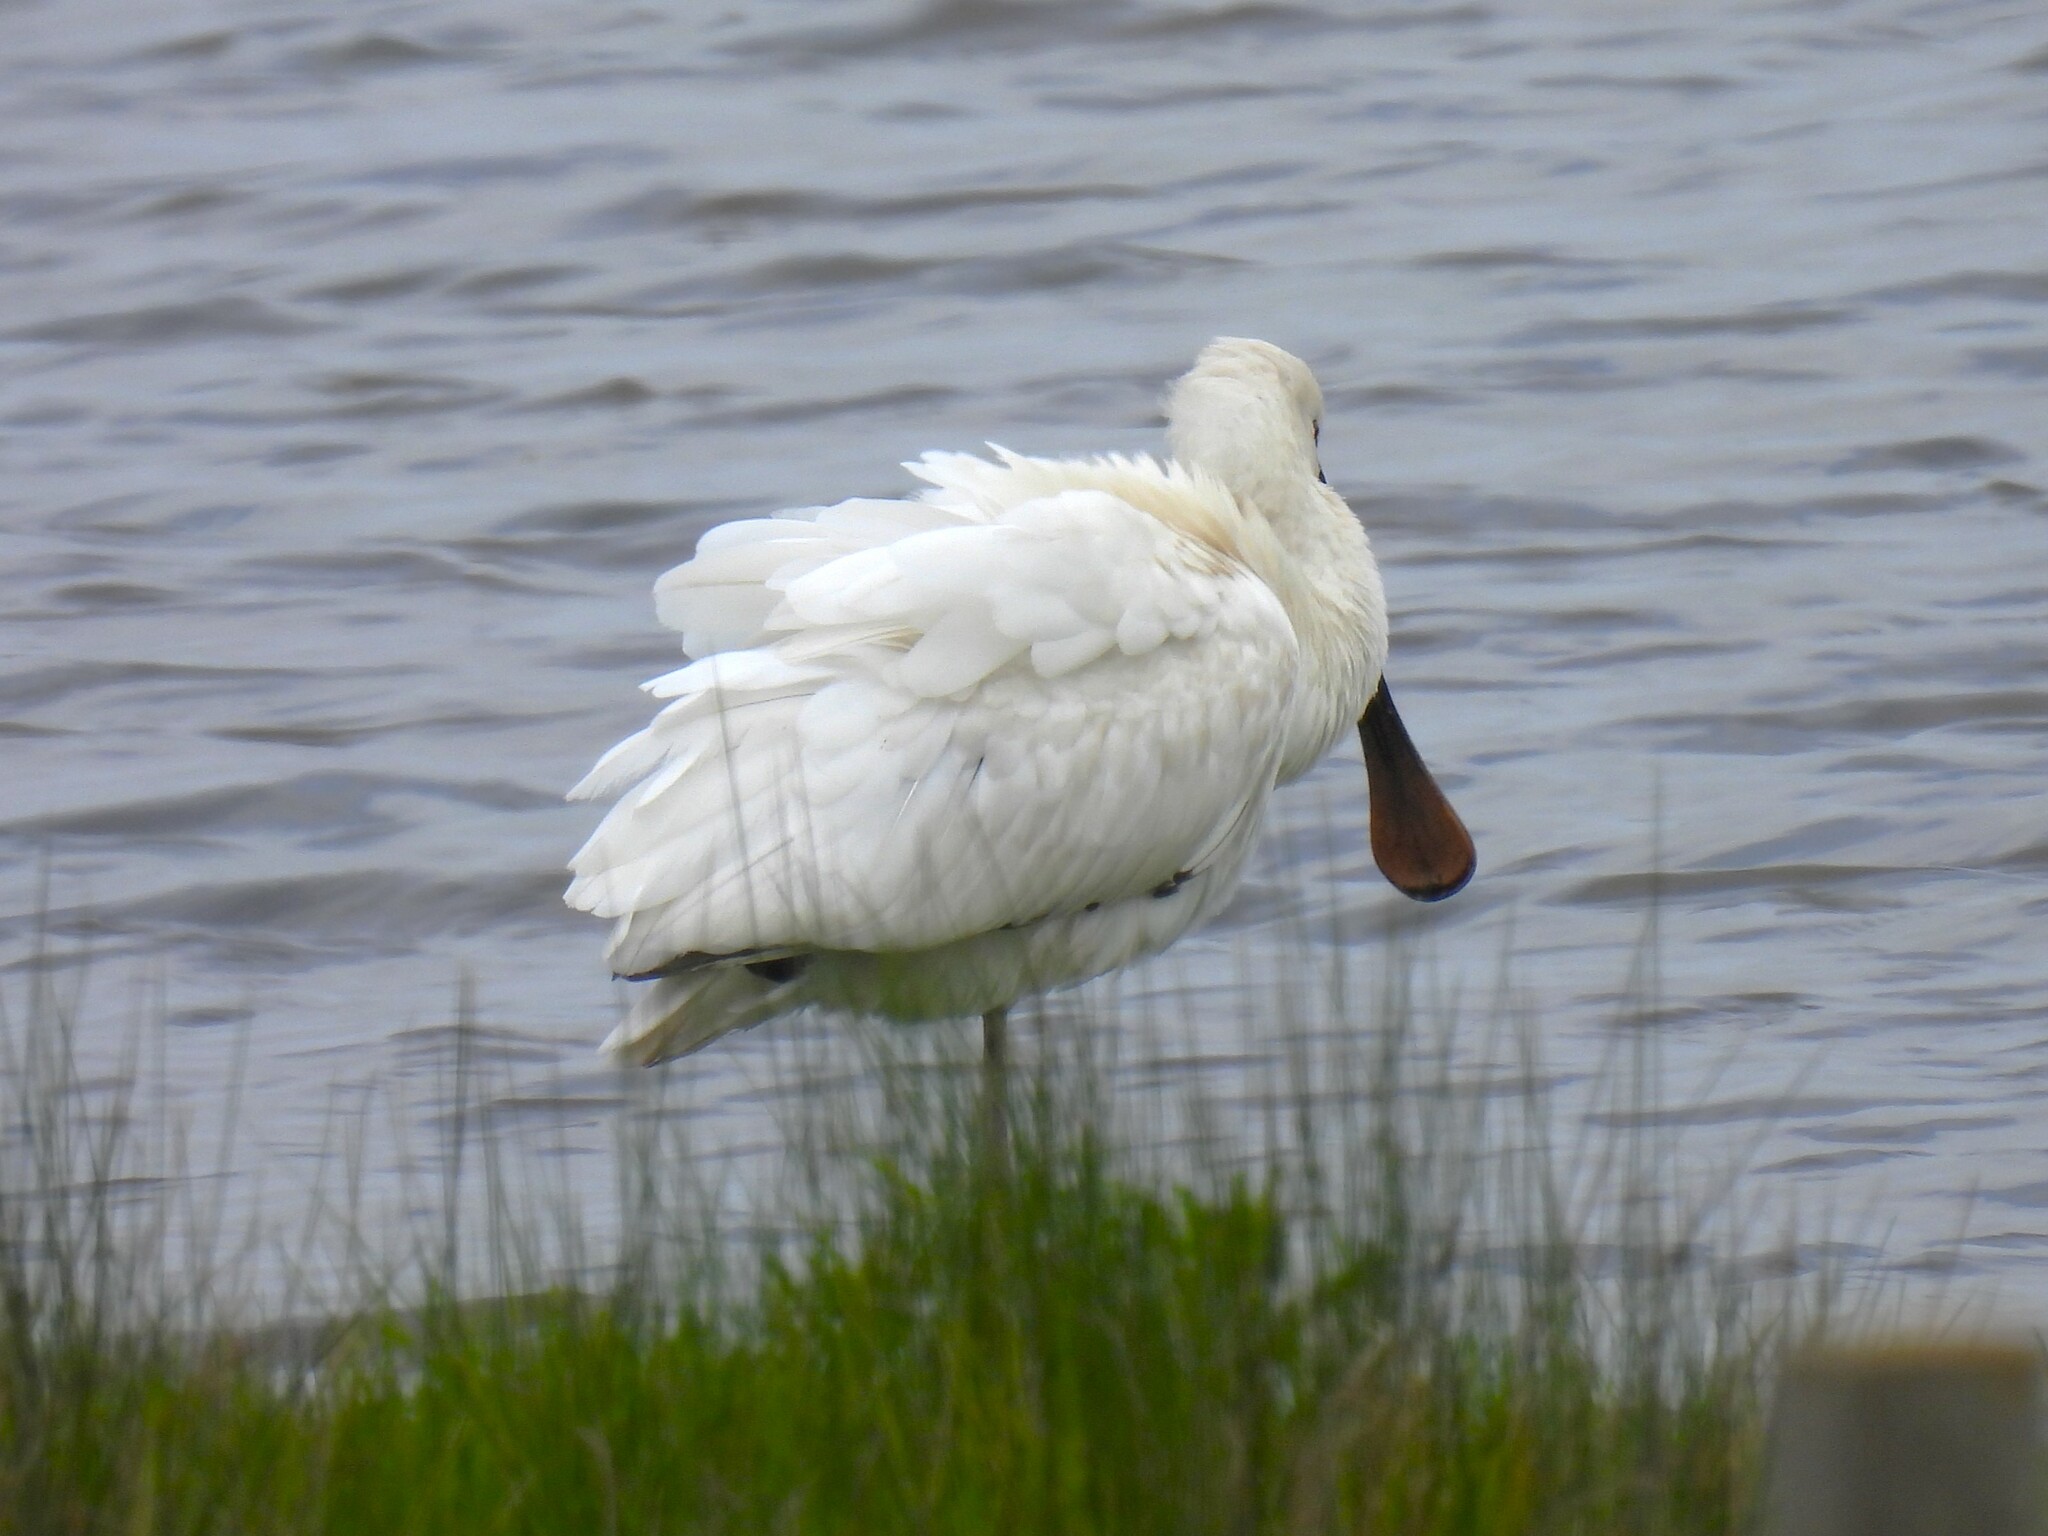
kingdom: Animalia
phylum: Chordata
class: Aves
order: Pelecaniformes
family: Threskiornithidae
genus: Platalea
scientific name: Platalea leucorodia
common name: Eurasian spoonbill
